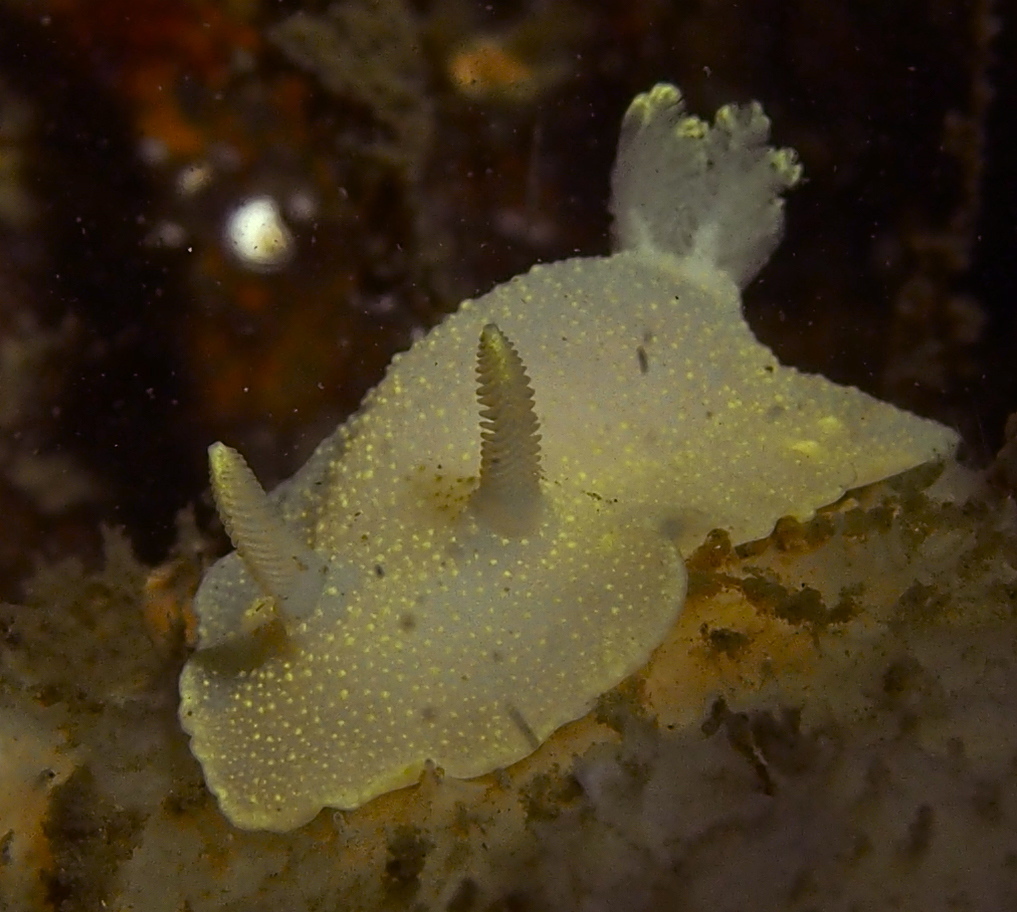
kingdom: Animalia
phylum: Mollusca
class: Gastropoda
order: Nudibranchia
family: Cadlinidae
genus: Cadlina
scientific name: Cadlina laevis
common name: White atlantic cadlina
